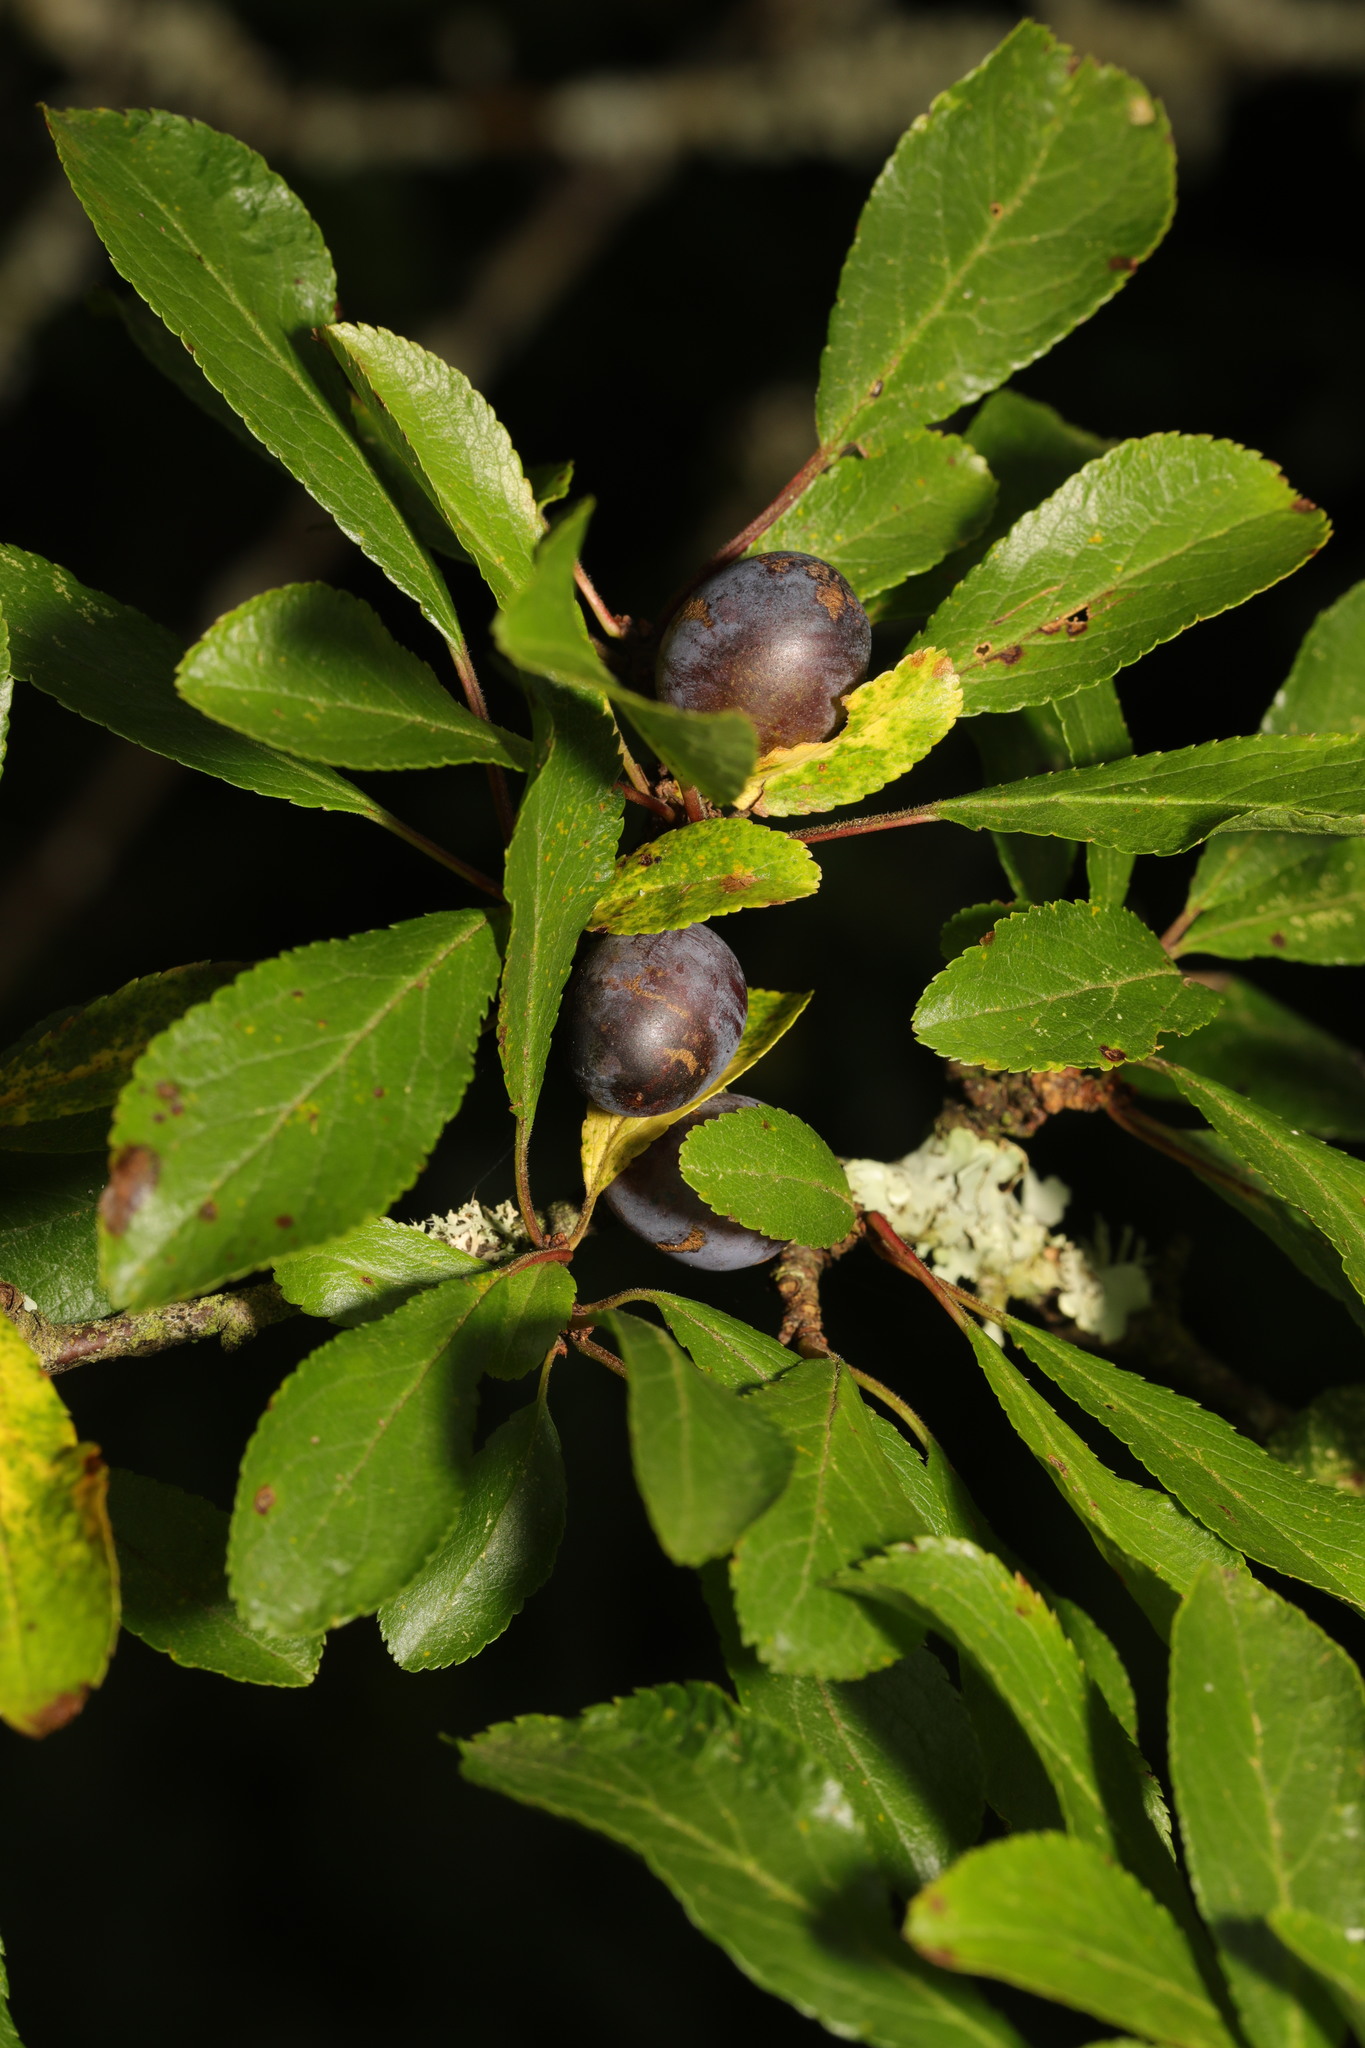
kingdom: Plantae
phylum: Tracheophyta
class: Magnoliopsida
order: Rosales
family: Rosaceae
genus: Prunus
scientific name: Prunus spinosa
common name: Blackthorn
